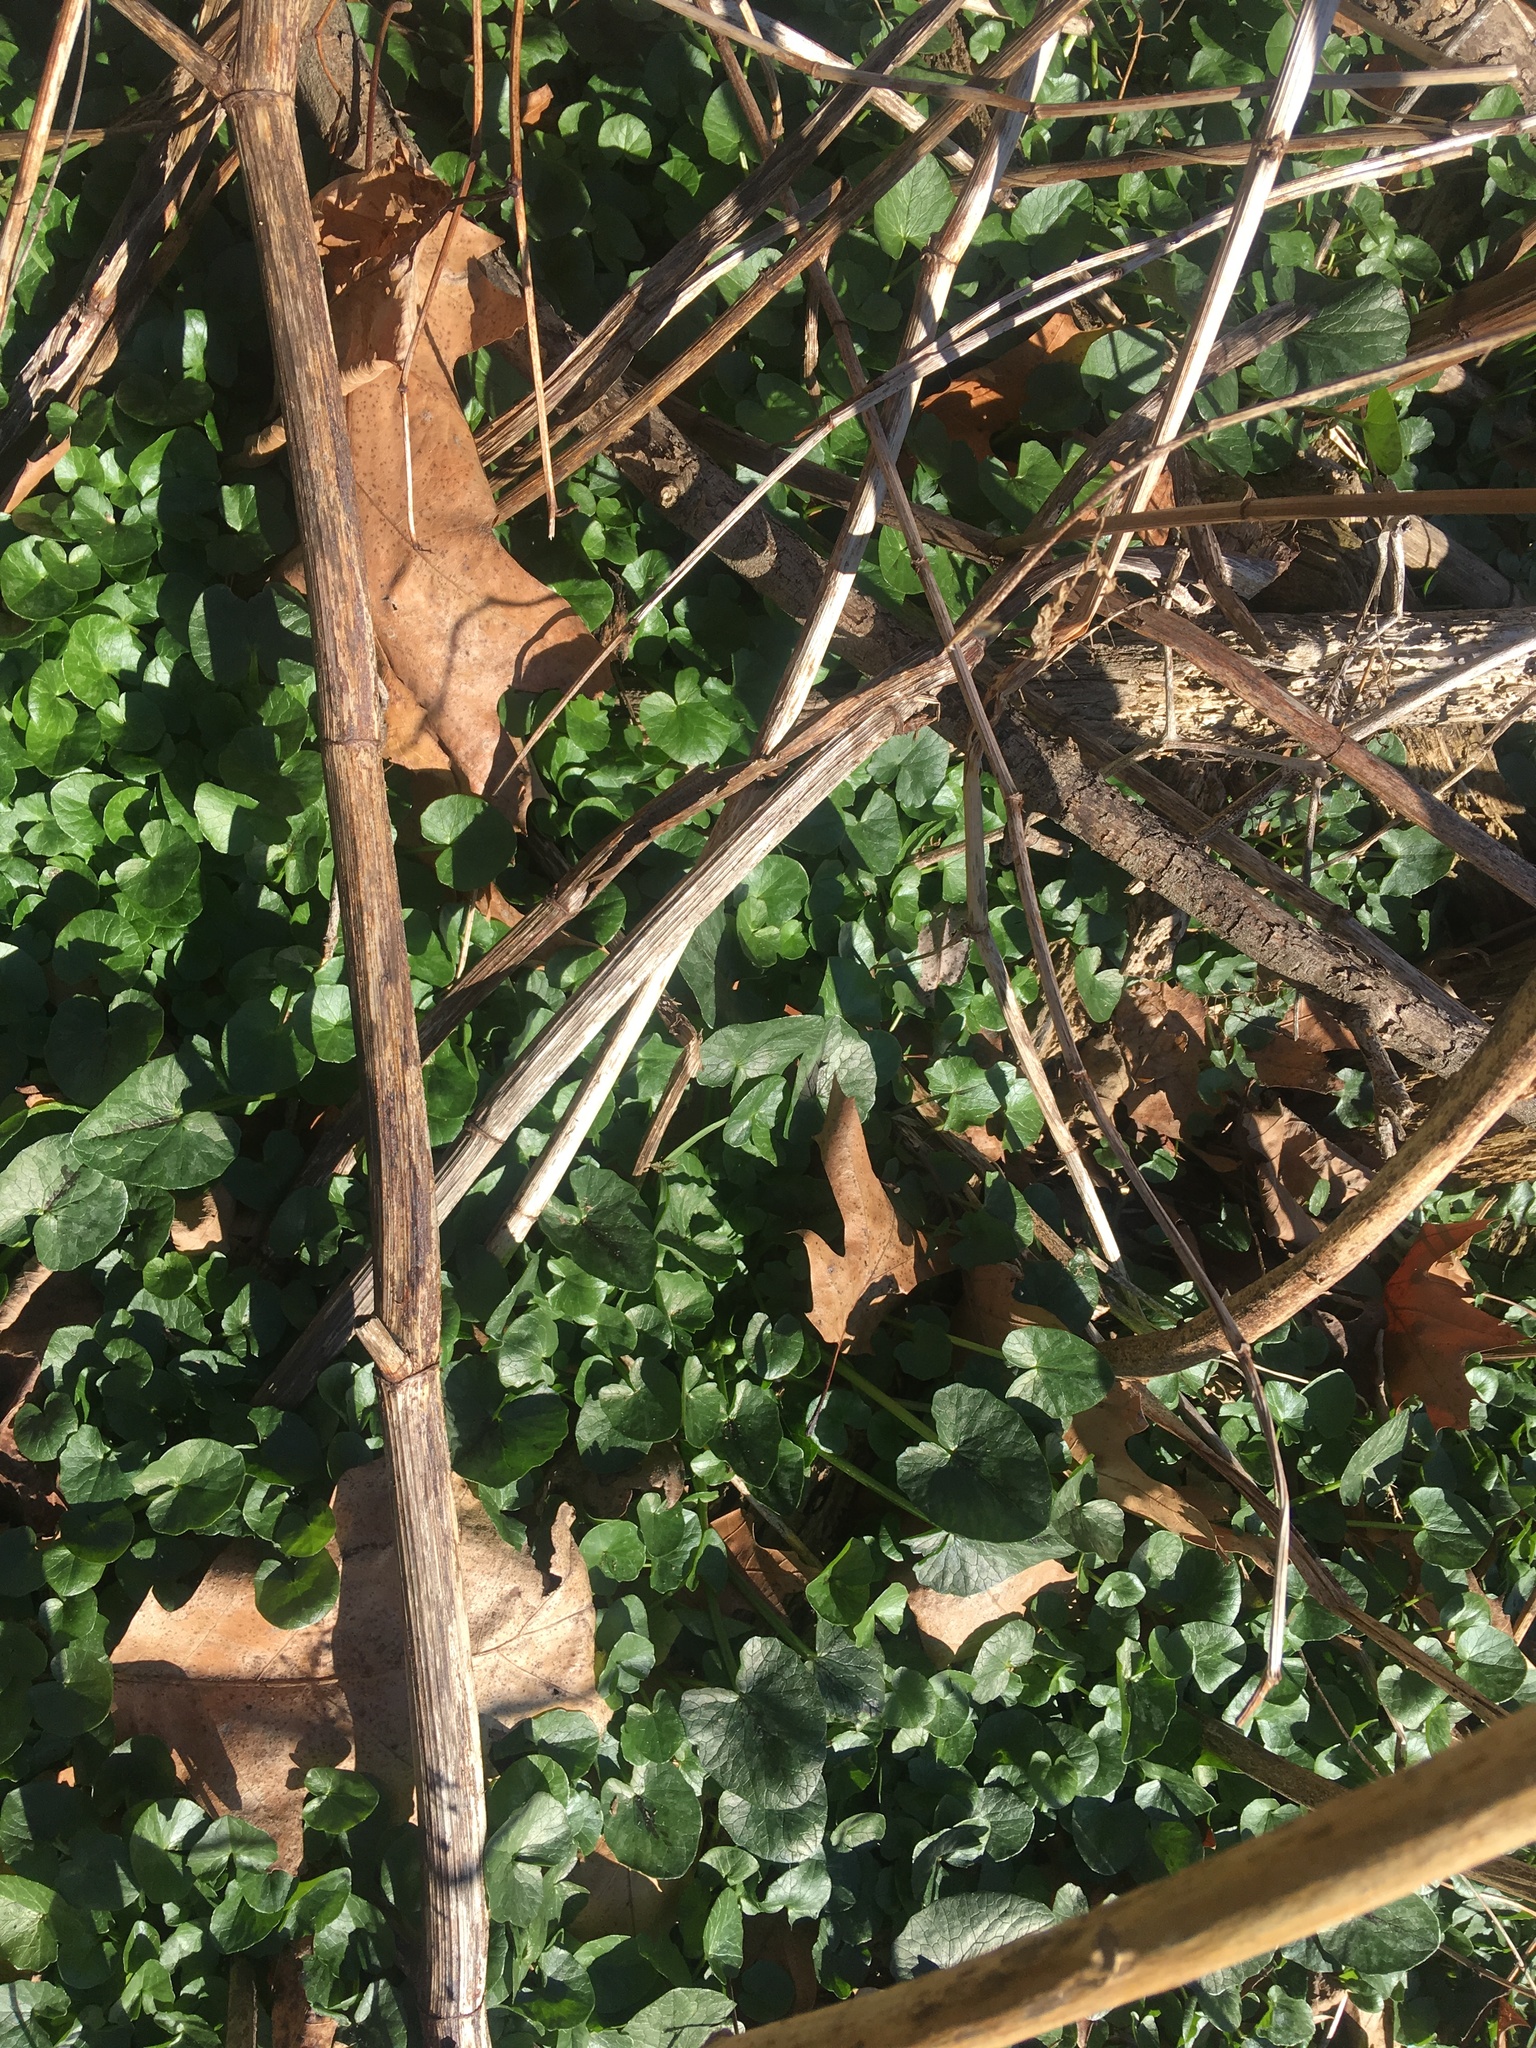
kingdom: Plantae
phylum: Tracheophyta
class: Magnoliopsida
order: Ranunculales
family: Ranunculaceae
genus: Ficaria
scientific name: Ficaria verna
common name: Lesser celandine
